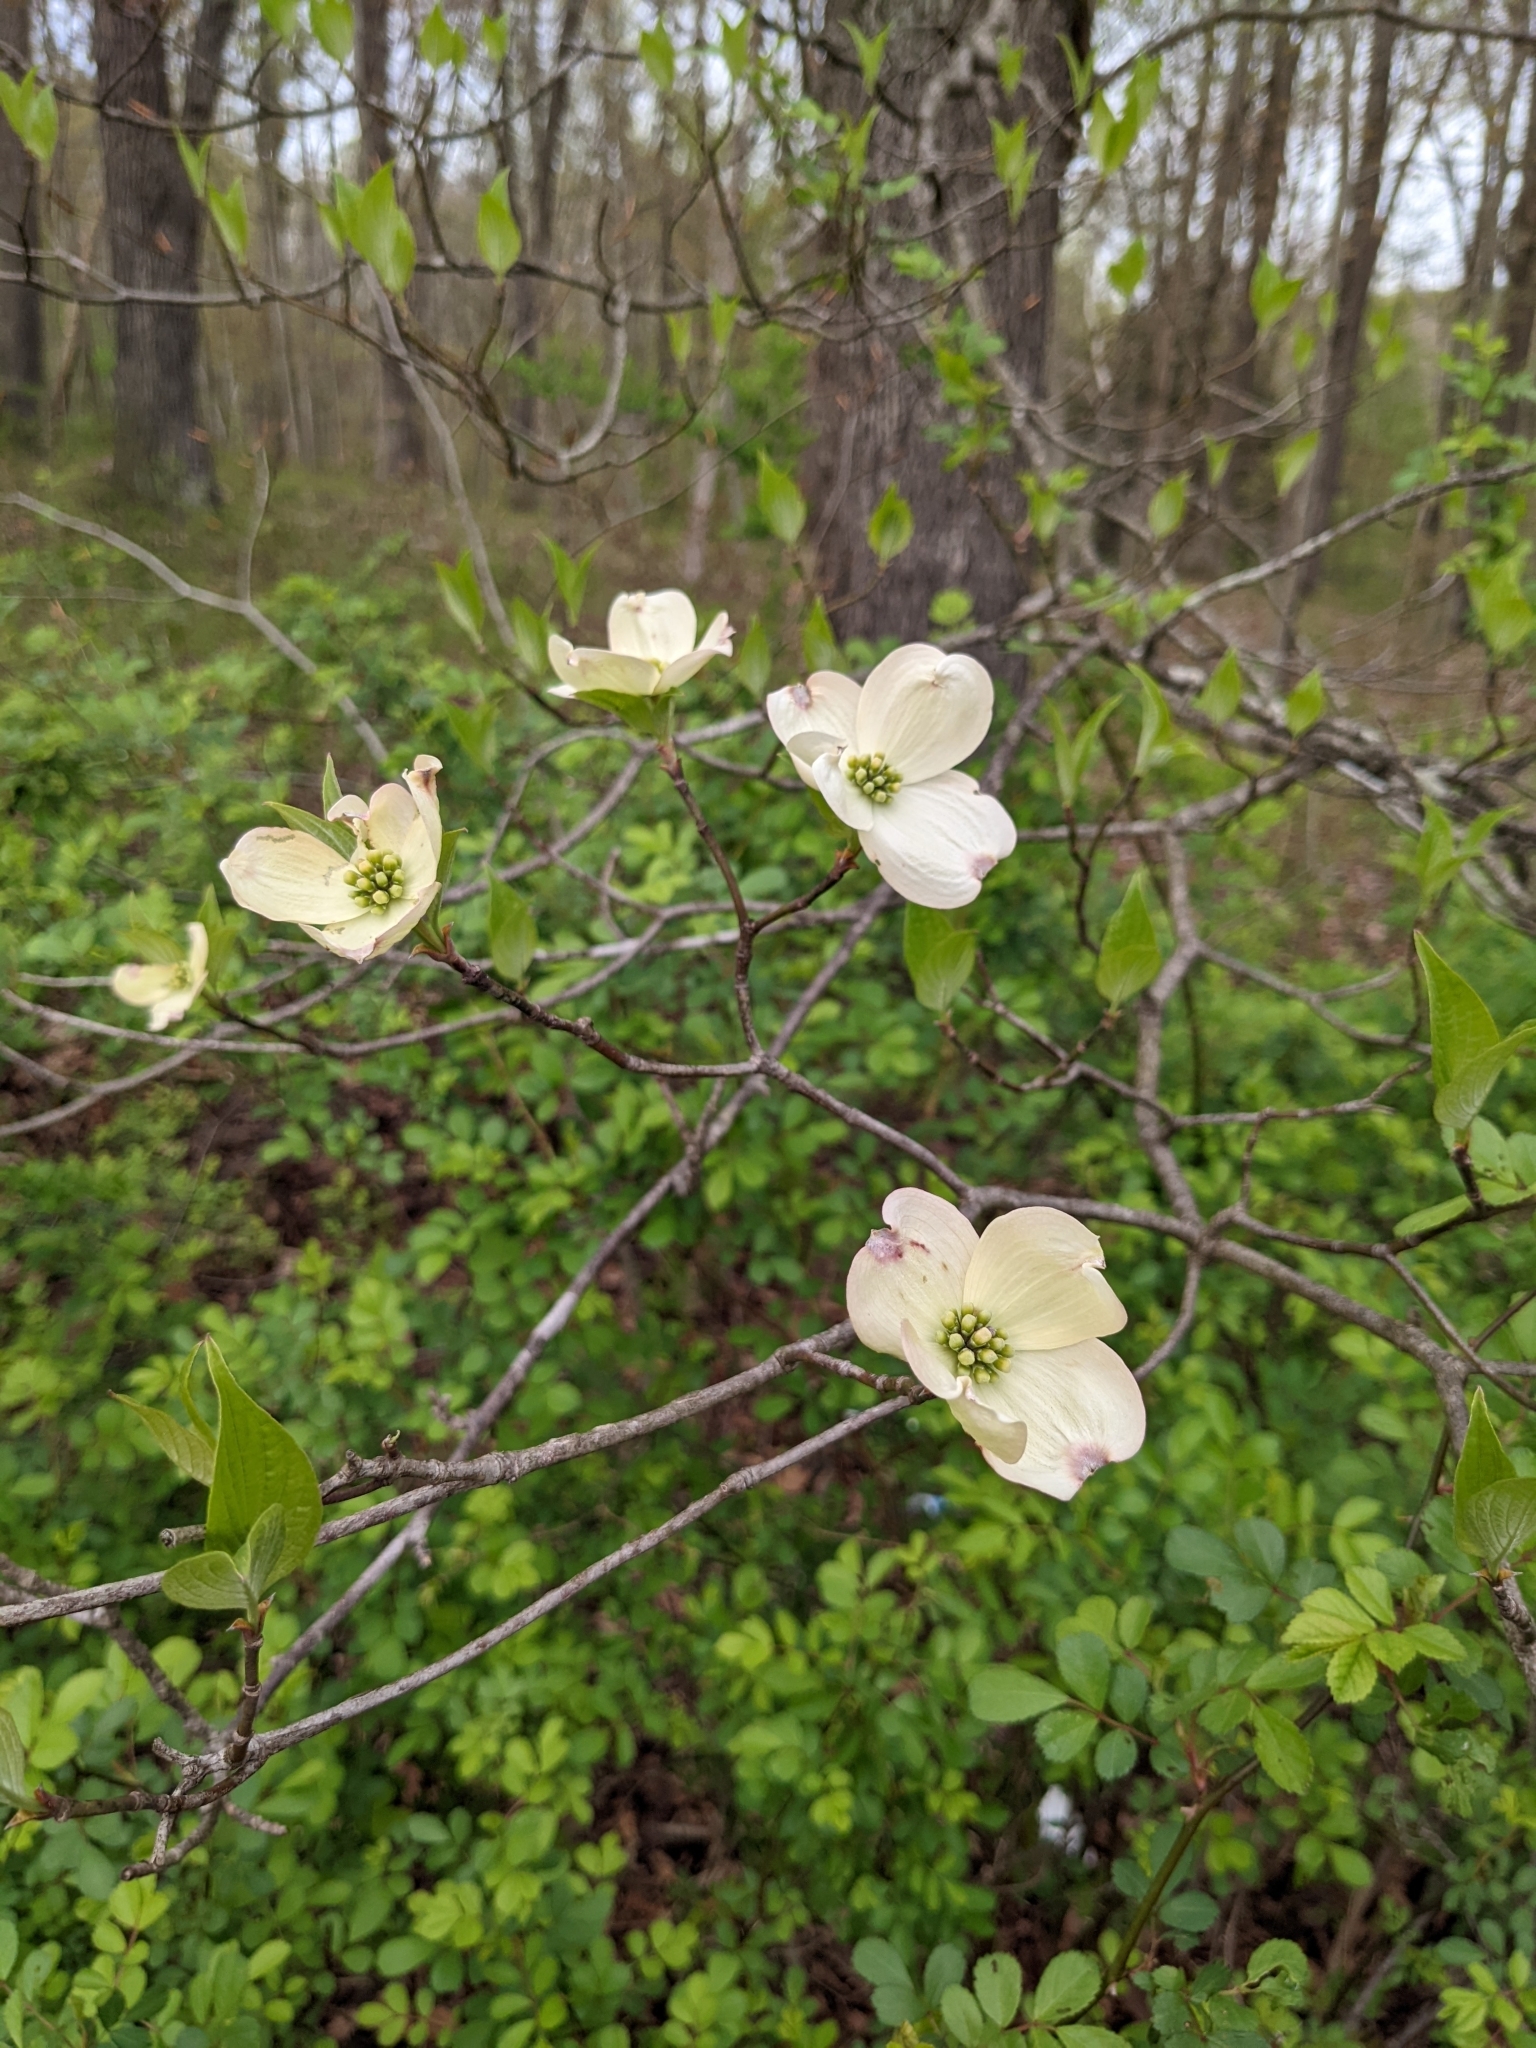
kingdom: Plantae
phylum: Tracheophyta
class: Magnoliopsida
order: Cornales
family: Cornaceae
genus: Cornus
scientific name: Cornus florida
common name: Flowering dogwood
